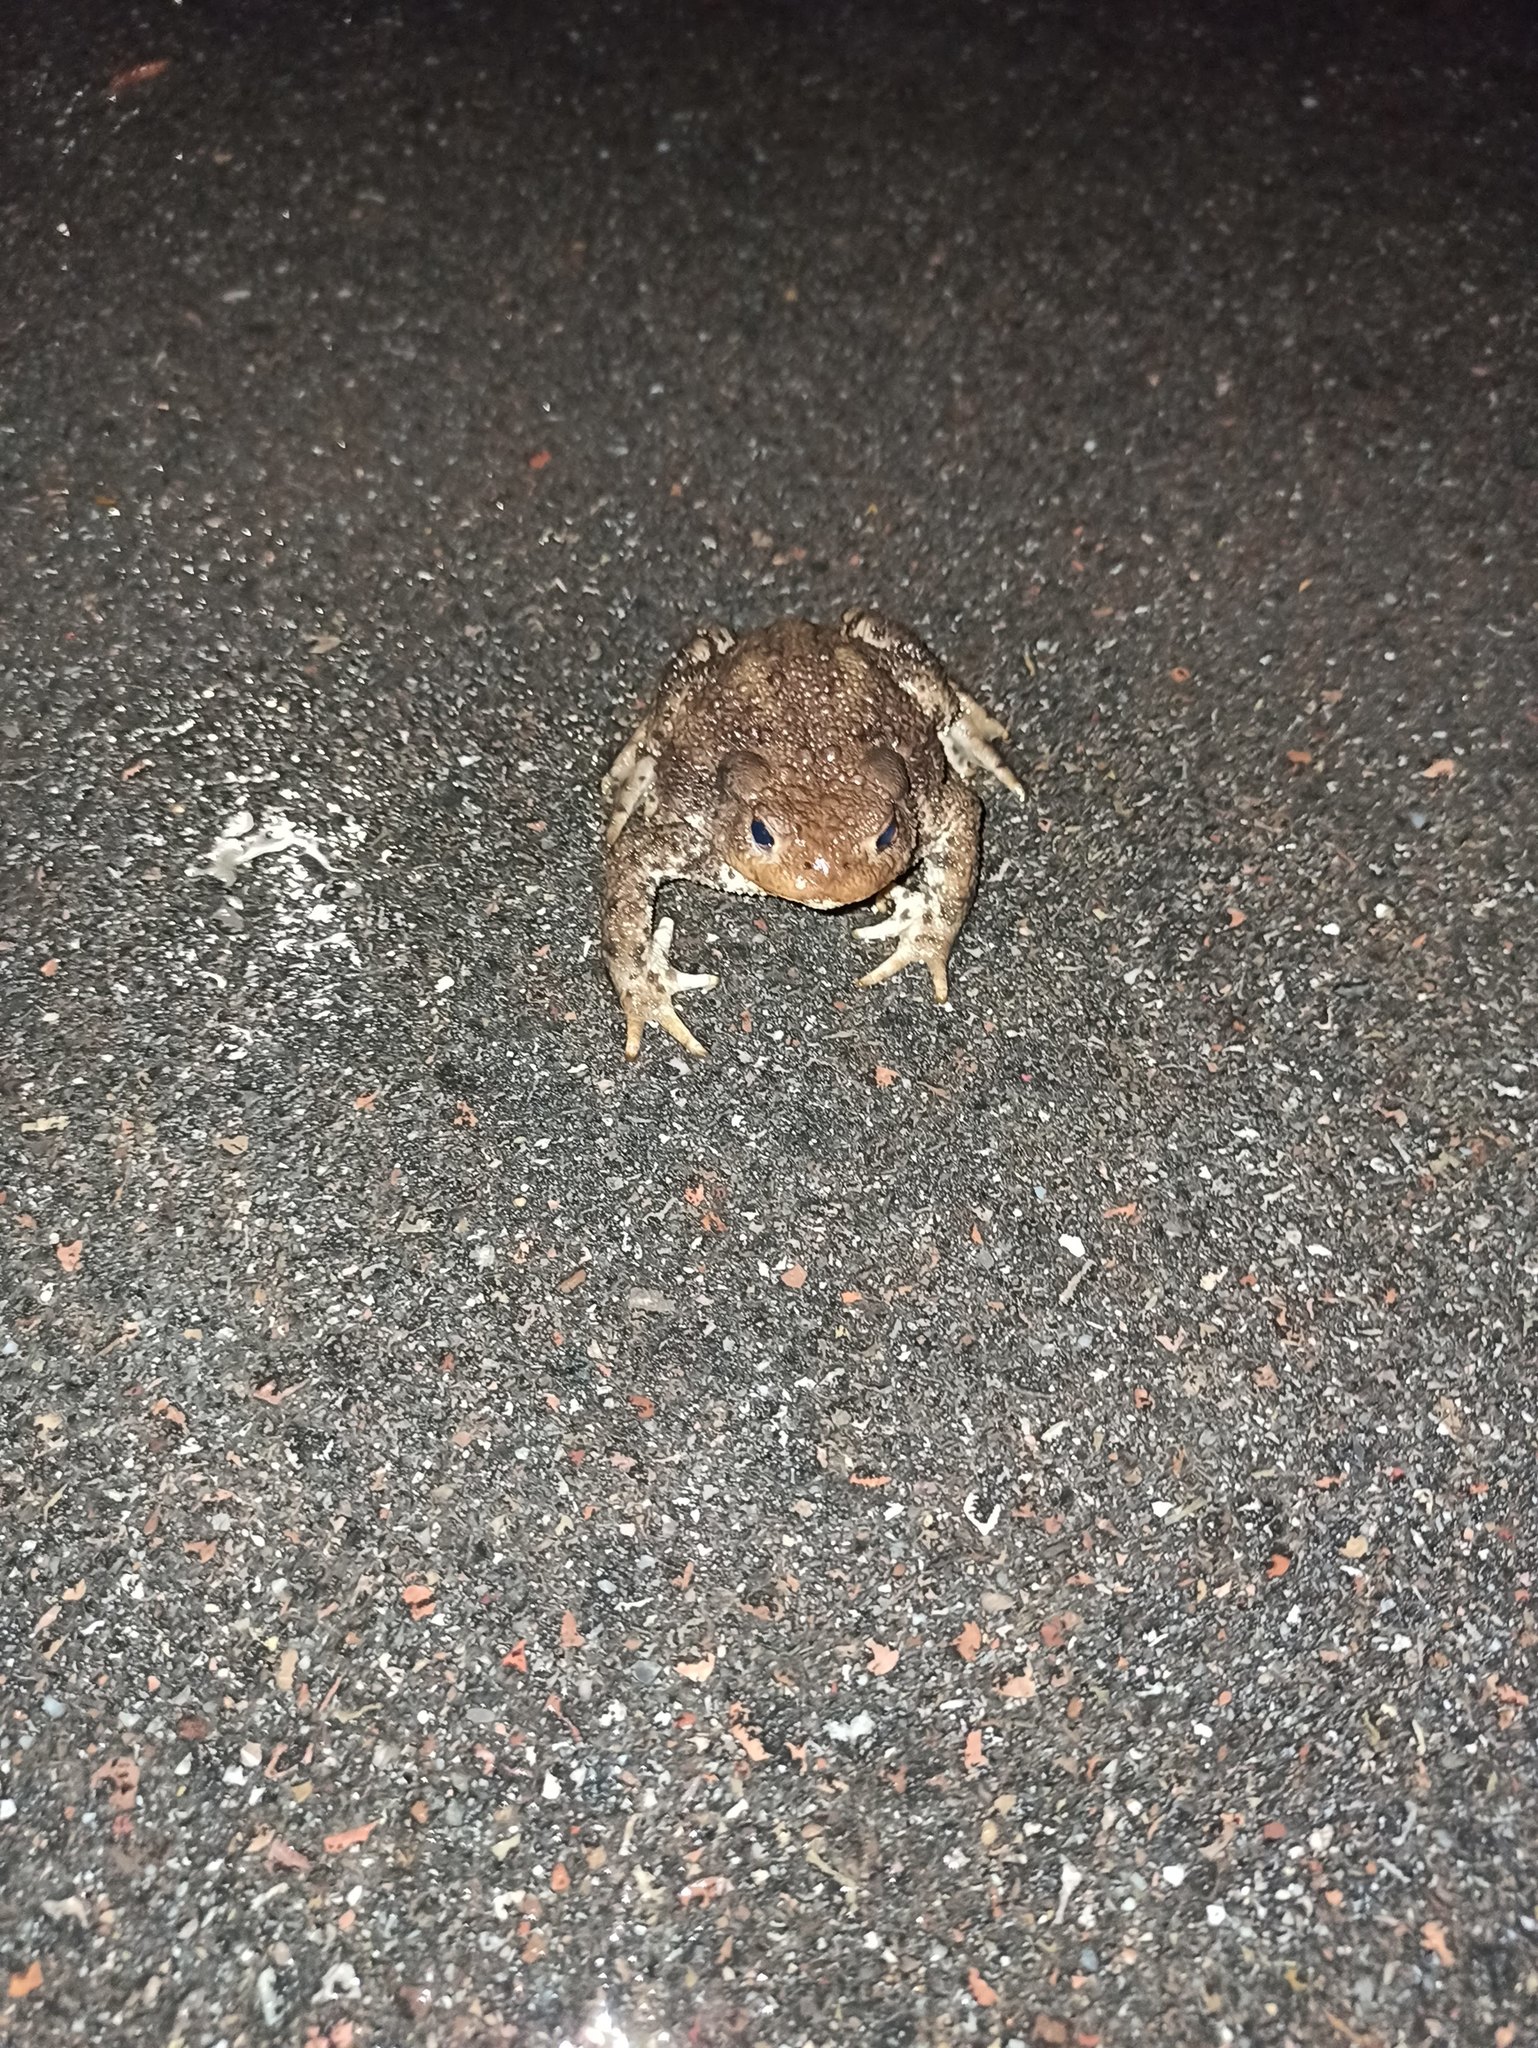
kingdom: Animalia
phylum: Chordata
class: Amphibia
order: Anura
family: Bufonidae
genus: Bufo
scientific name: Bufo bufo
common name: Common toad
